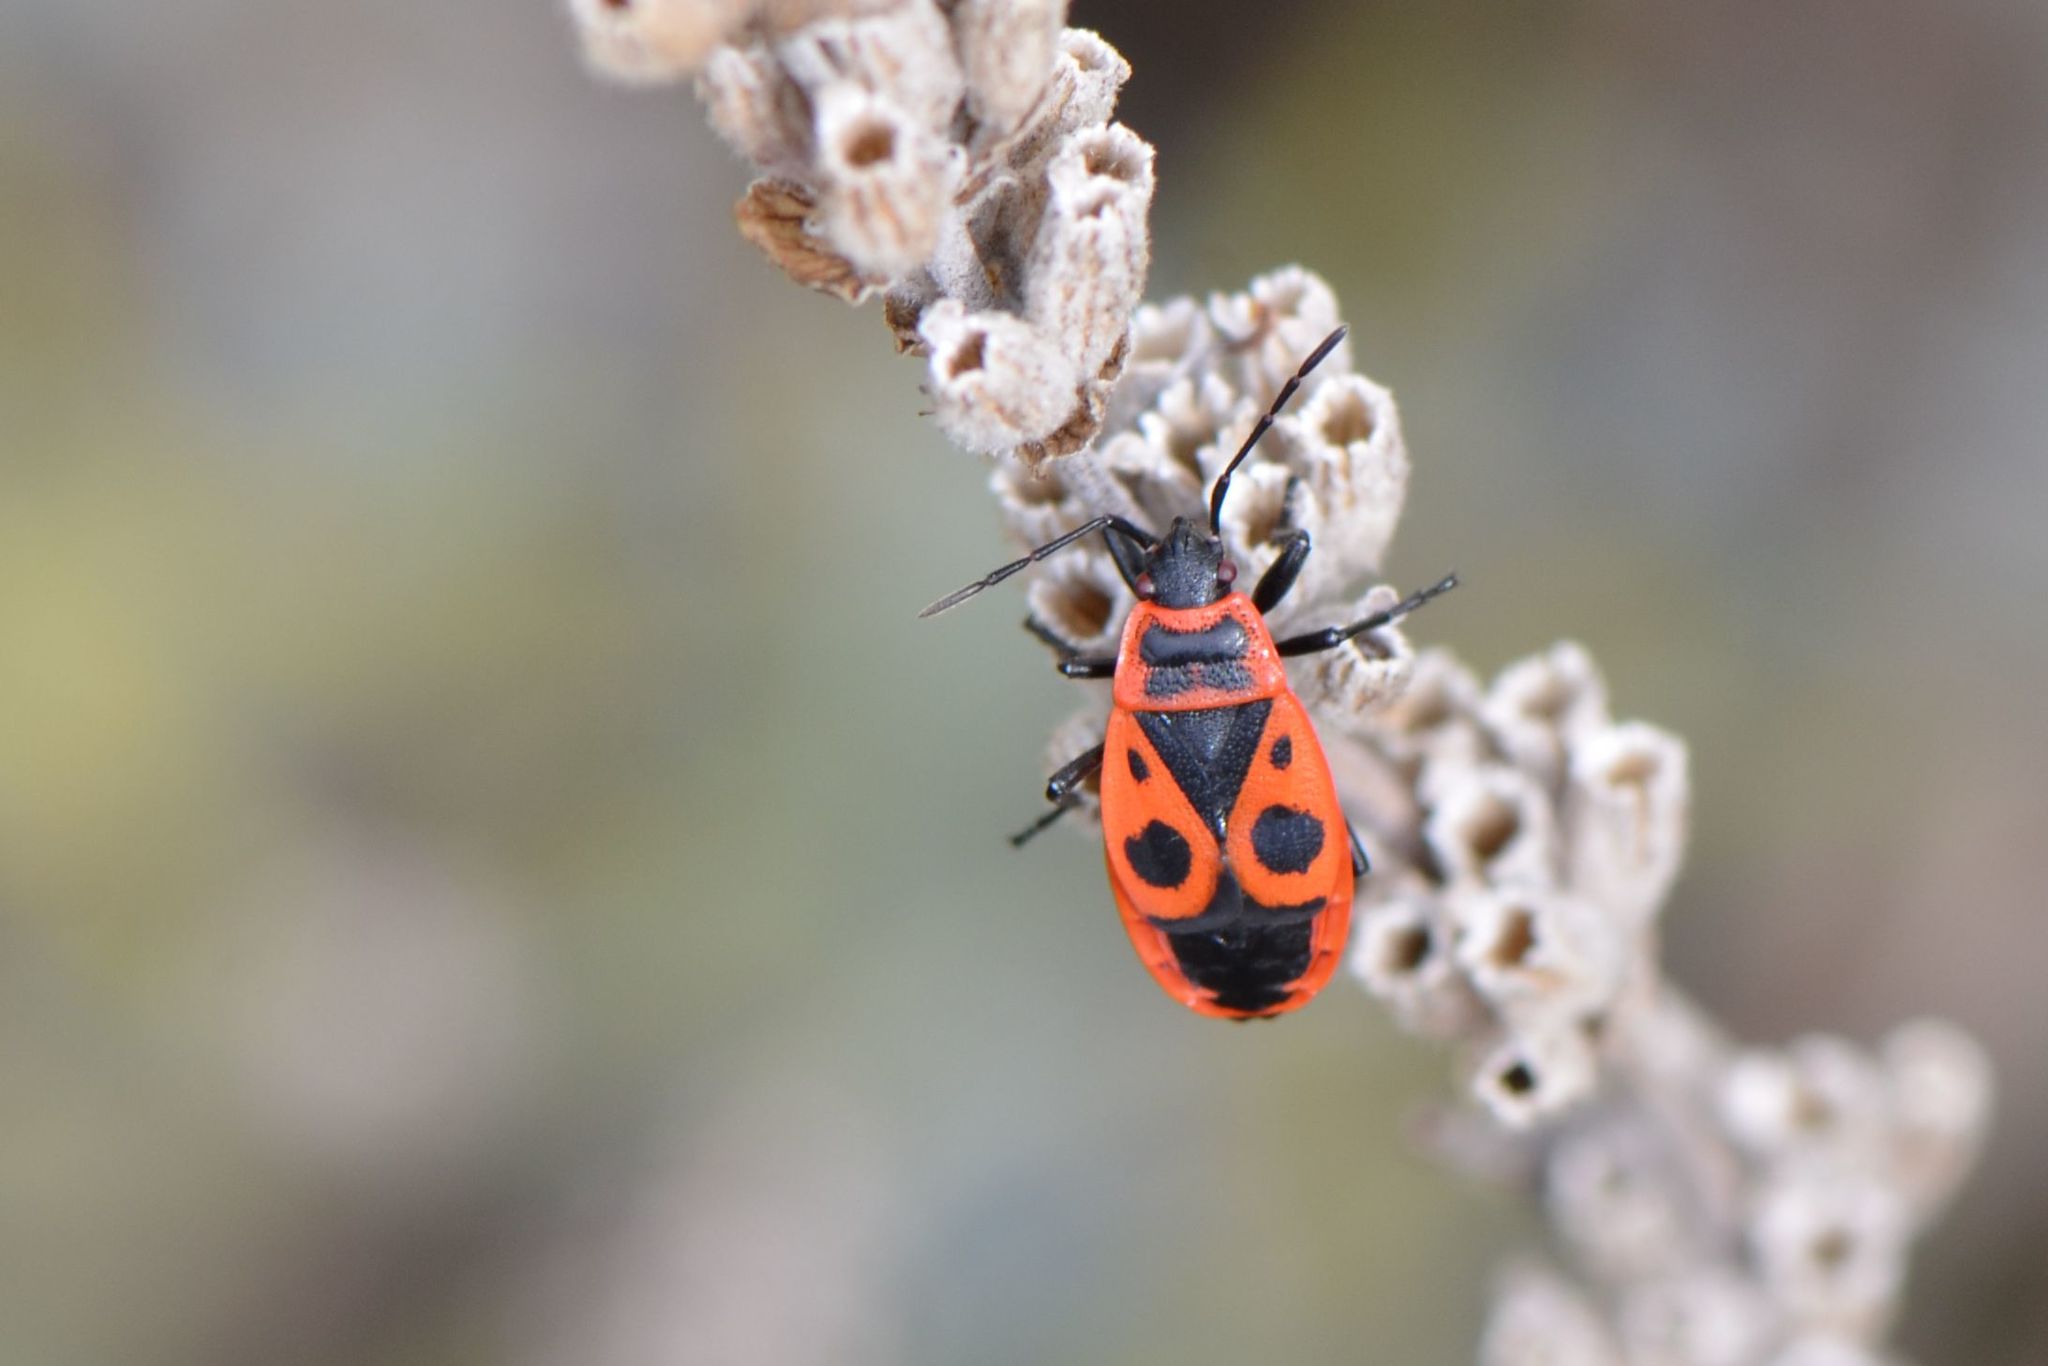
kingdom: Animalia
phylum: Arthropoda
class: Insecta
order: Hemiptera
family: Pyrrhocoridae
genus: Pyrrhocoris
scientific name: Pyrrhocoris apterus
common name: Firebug
